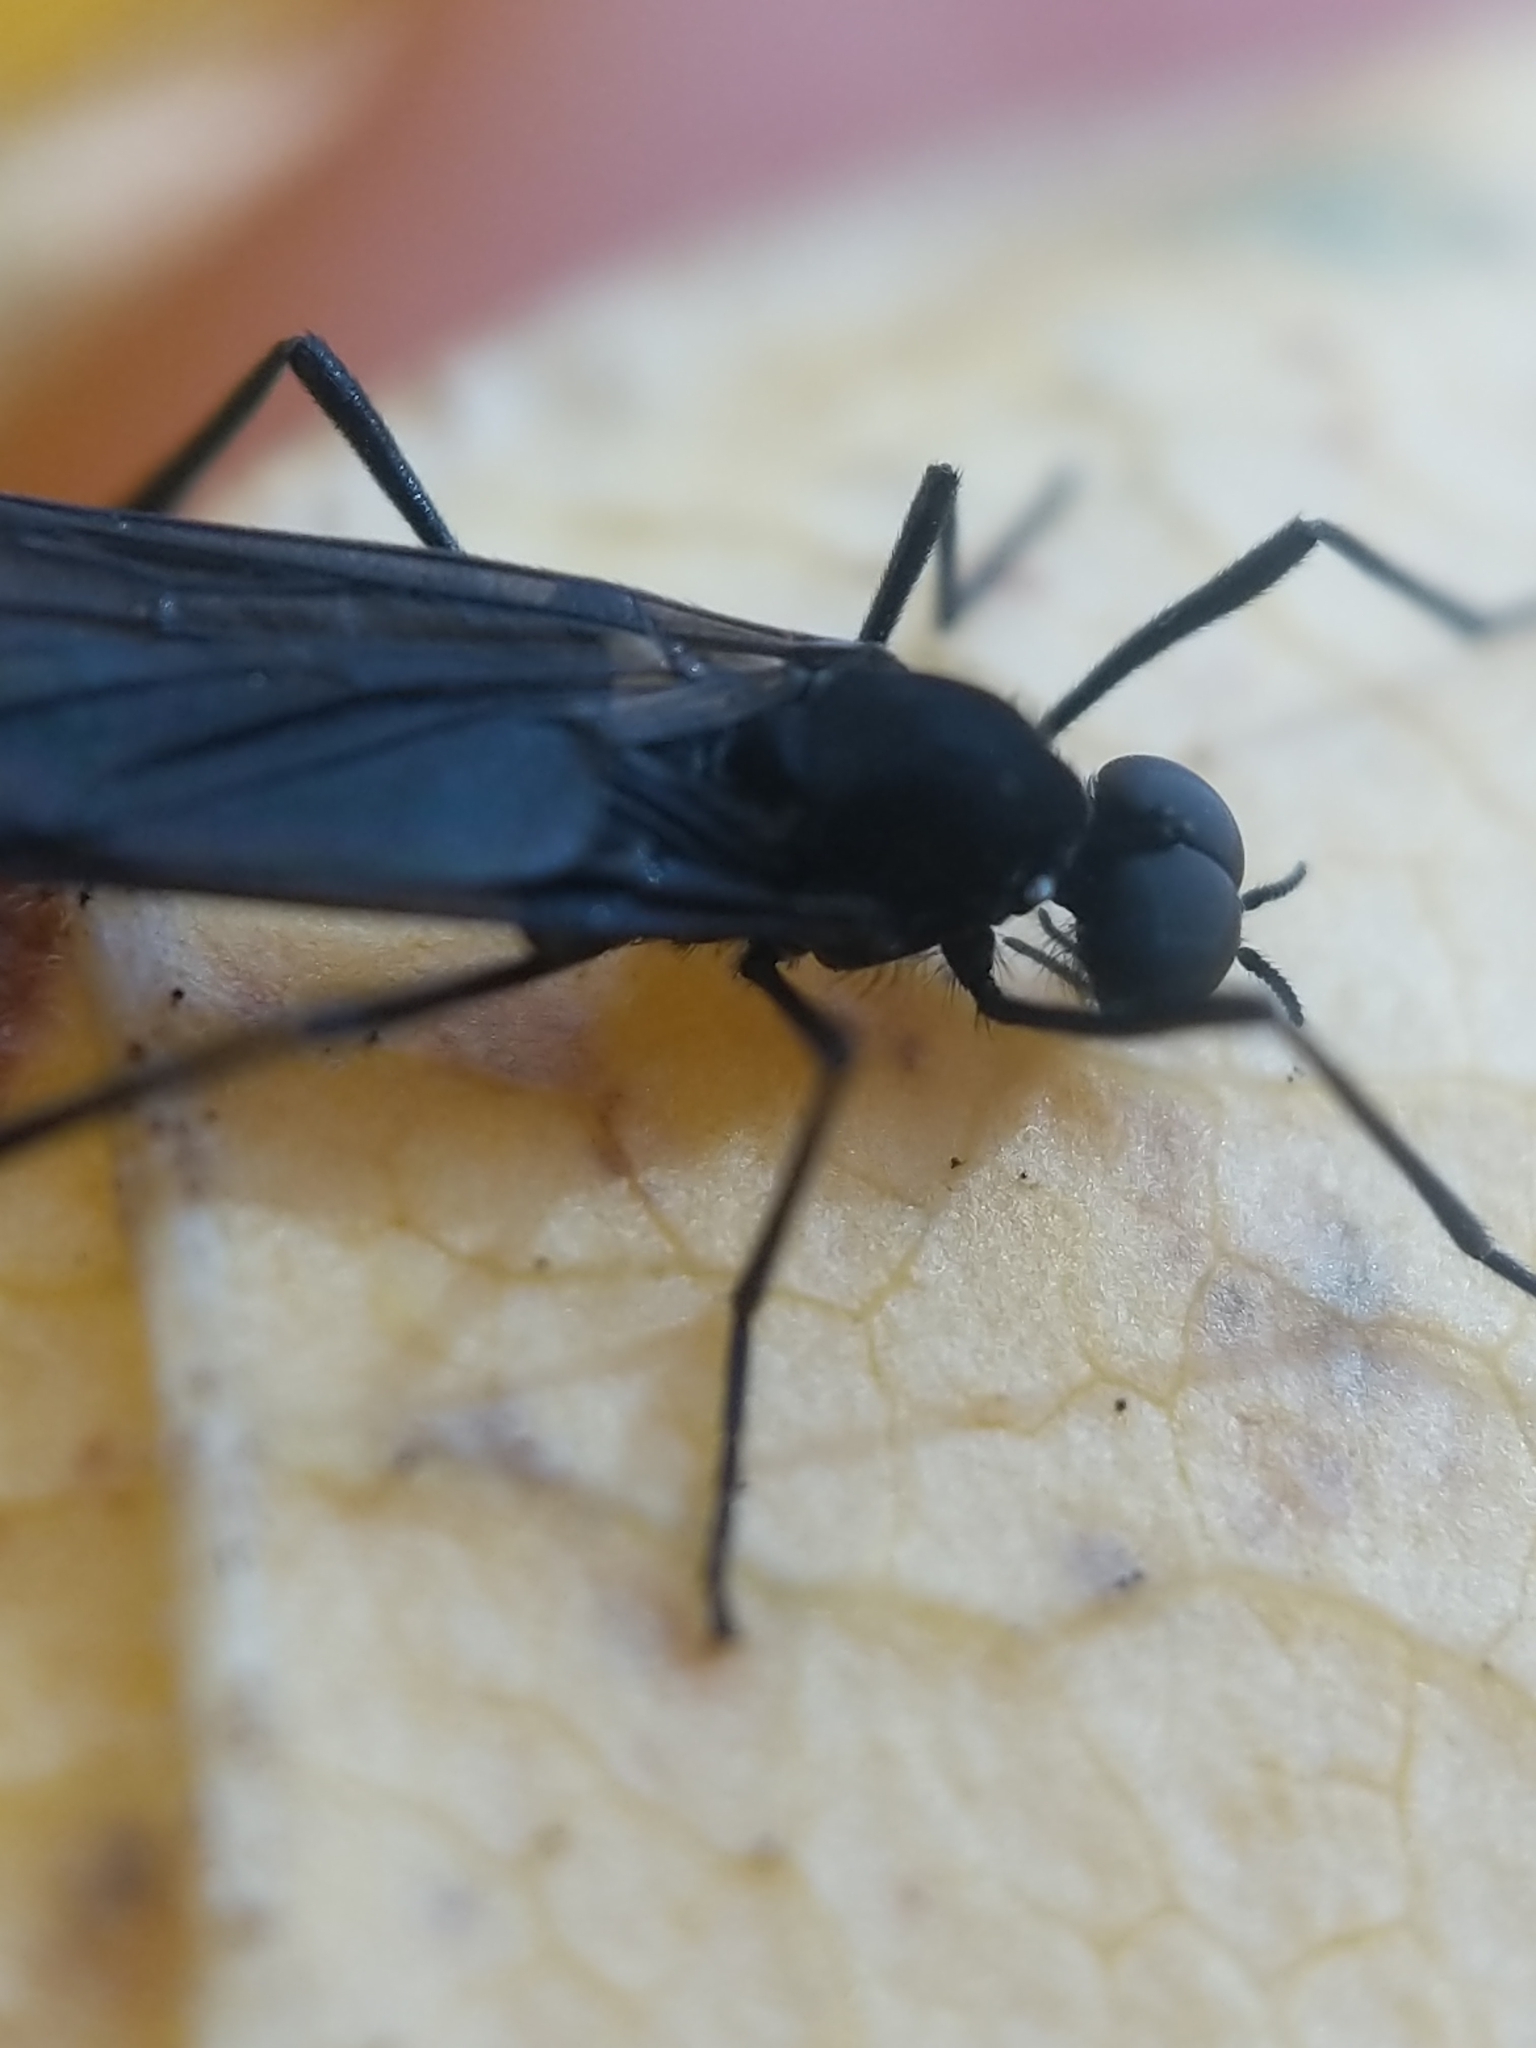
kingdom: Animalia
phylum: Arthropoda
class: Insecta
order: Diptera
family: Bibionidae
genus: Penthetria
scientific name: Penthetria heteroptera
